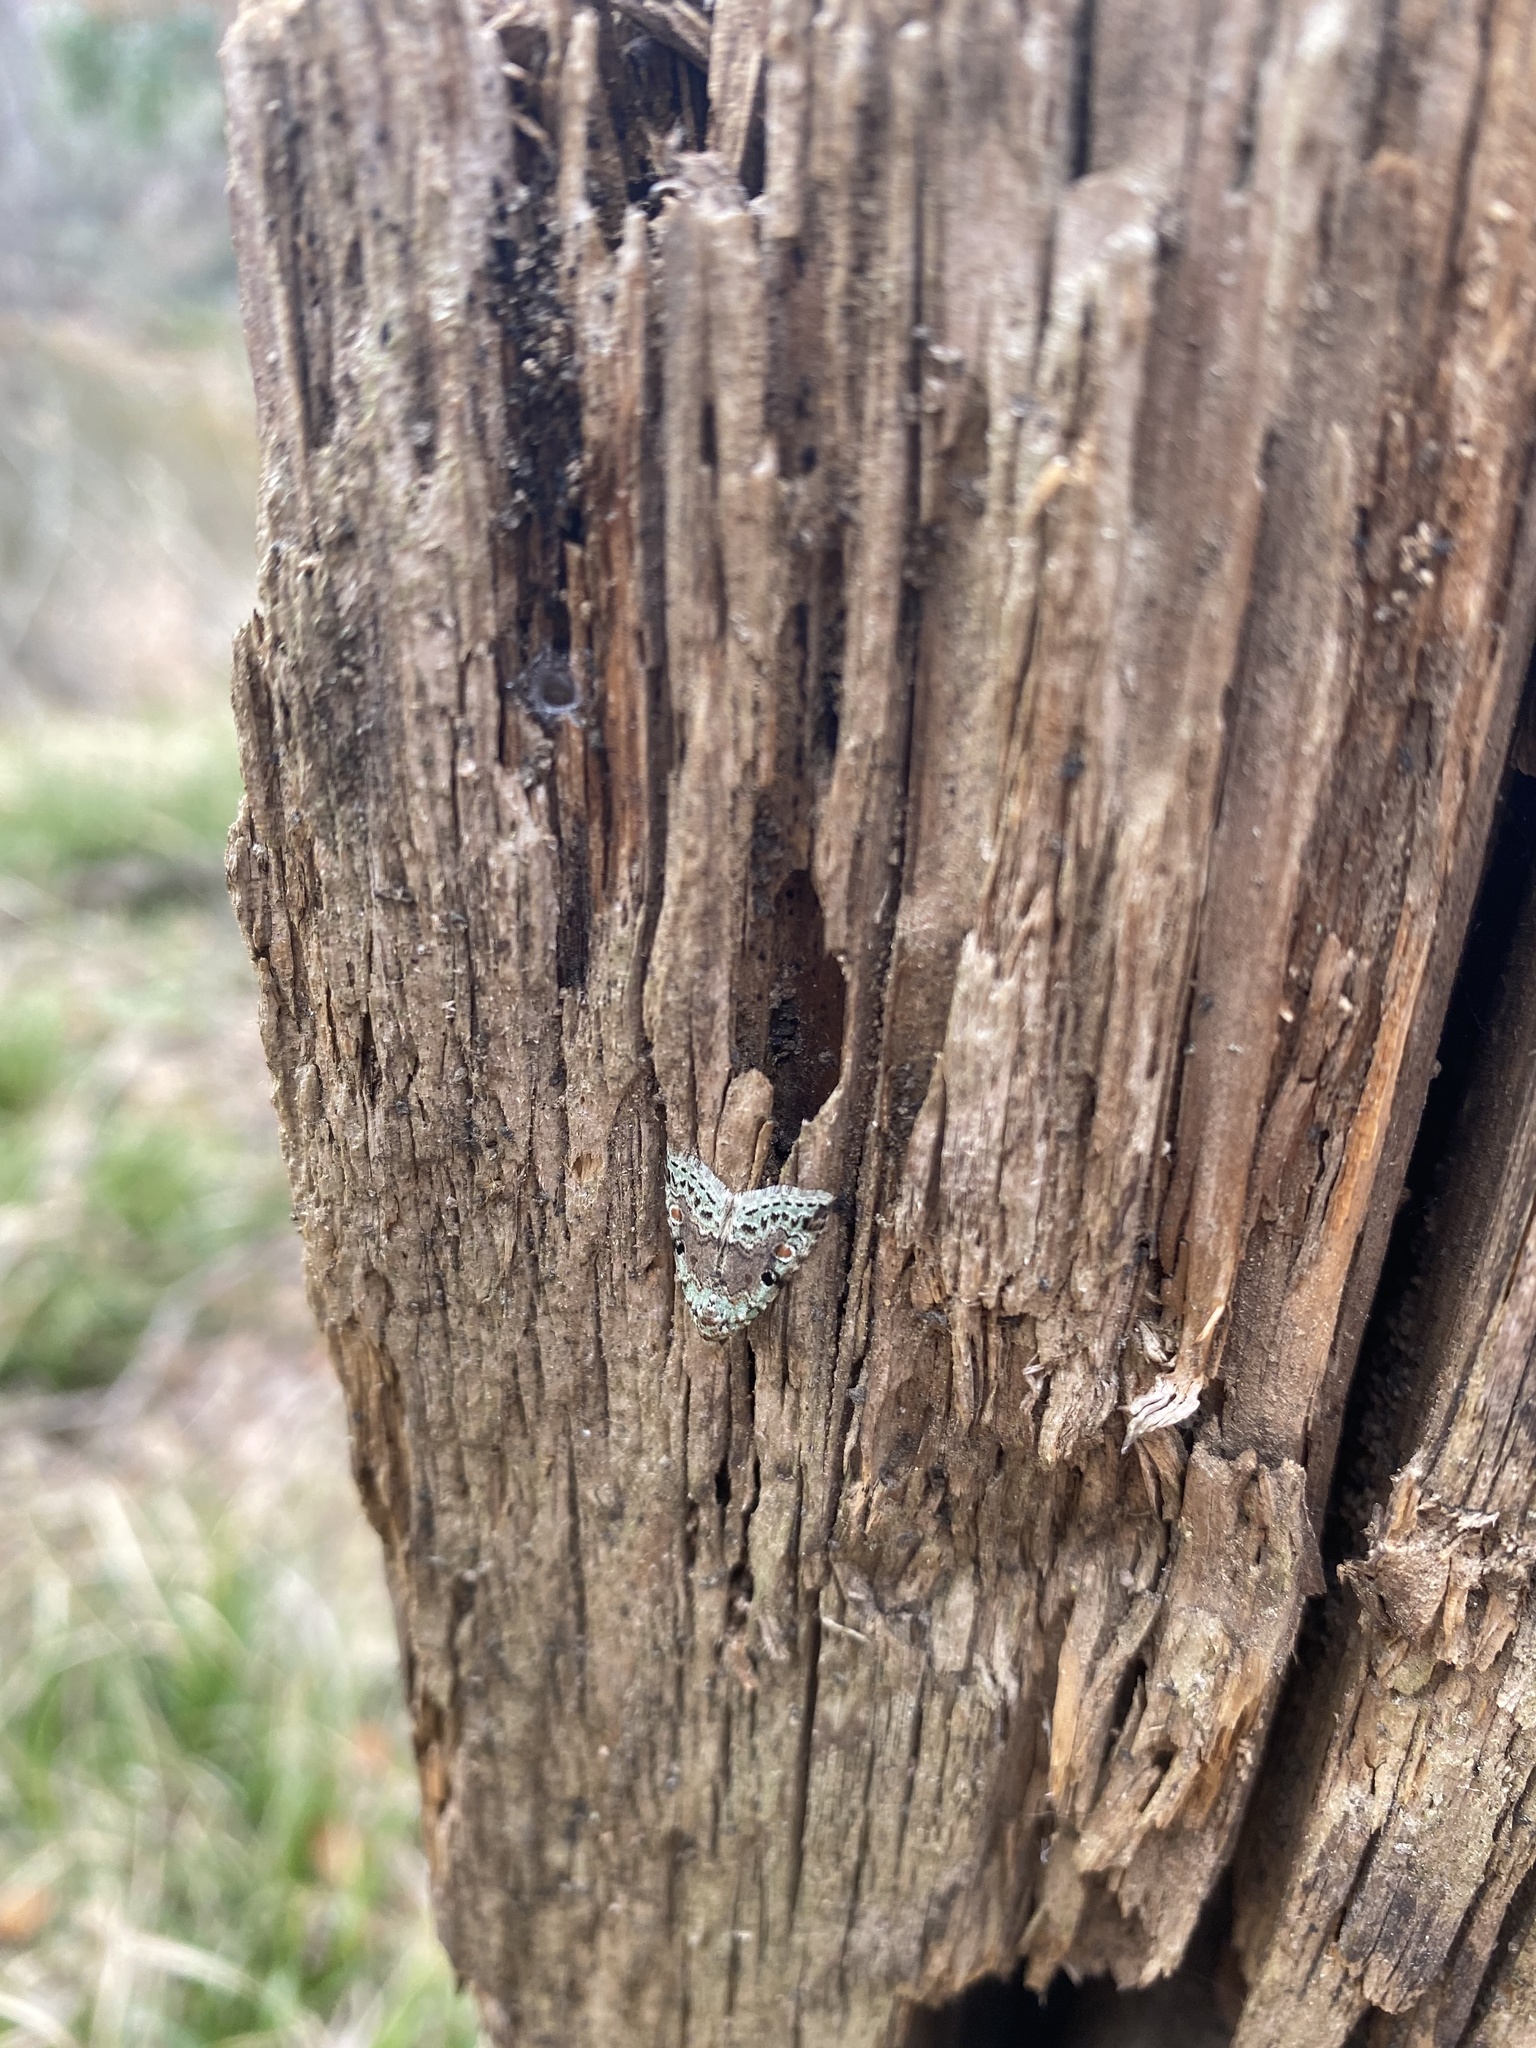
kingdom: Animalia
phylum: Arthropoda
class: Insecta
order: Lepidoptera
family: Noctuidae
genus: Maliattha
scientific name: Maliattha concinnimacula
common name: Red-spotted glyph
